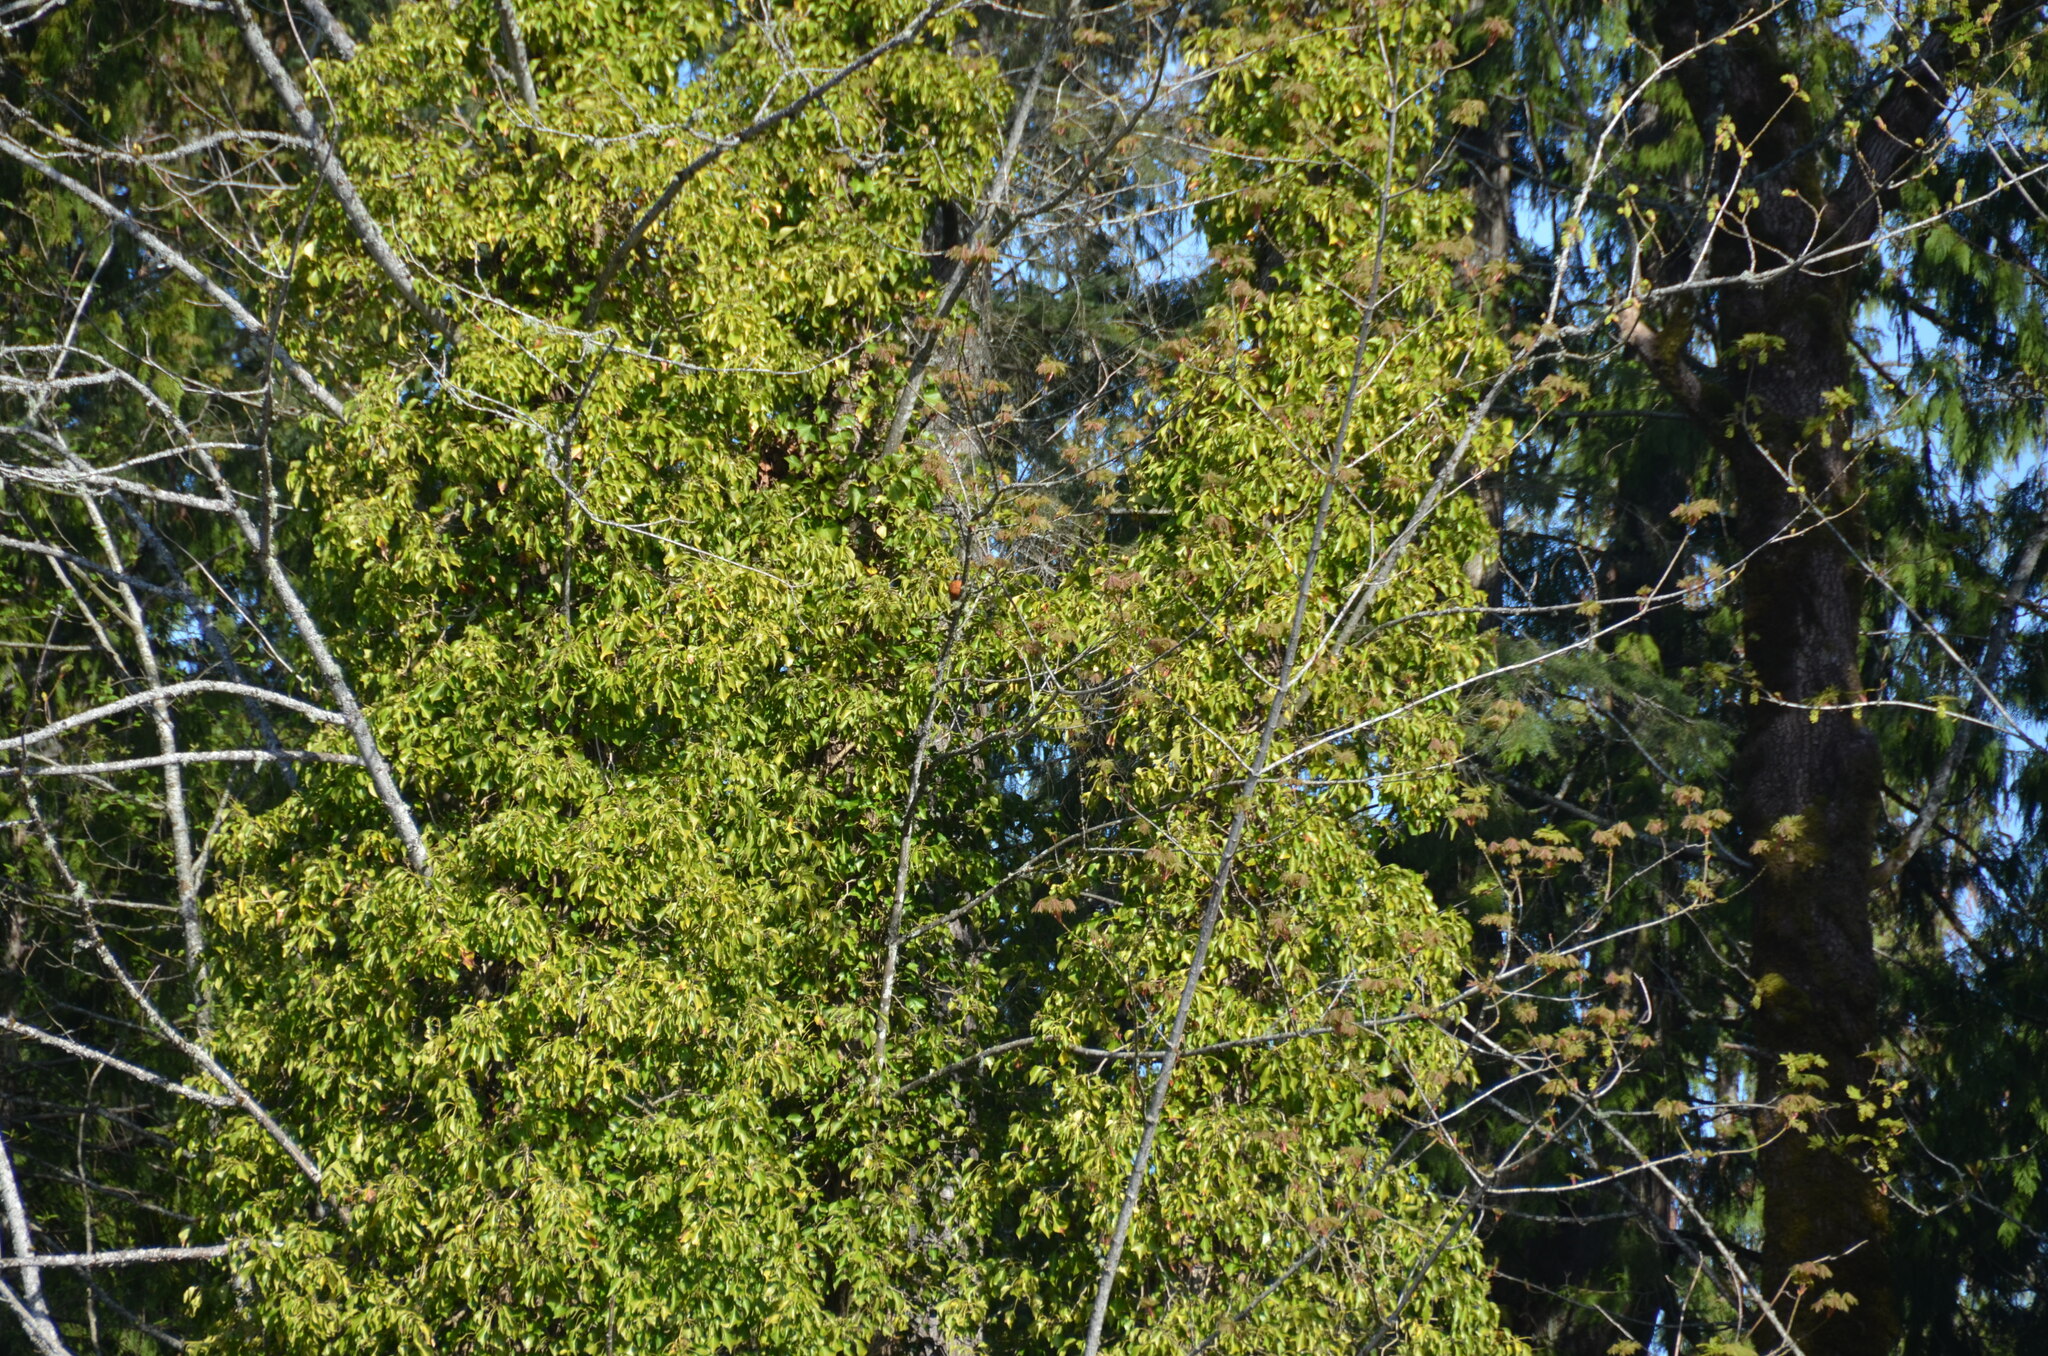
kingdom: Animalia
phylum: Chordata
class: Aves
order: Passeriformes
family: Turdidae
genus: Turdus
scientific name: Turdus migratorius
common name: American robin
